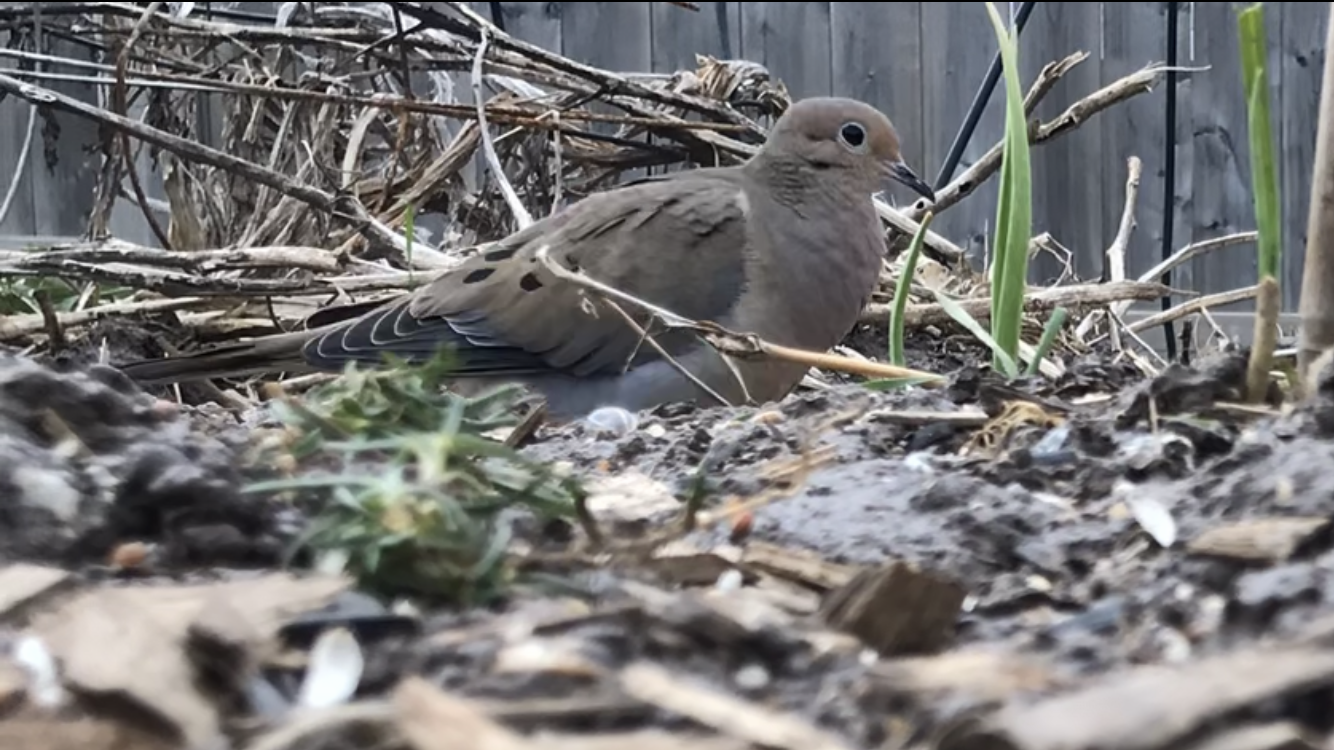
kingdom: Animalia
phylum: Chordata
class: Aves
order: Columbiformes
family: Columbidae
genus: Zenaida
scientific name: Zenaida macroura
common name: Mourning dove
